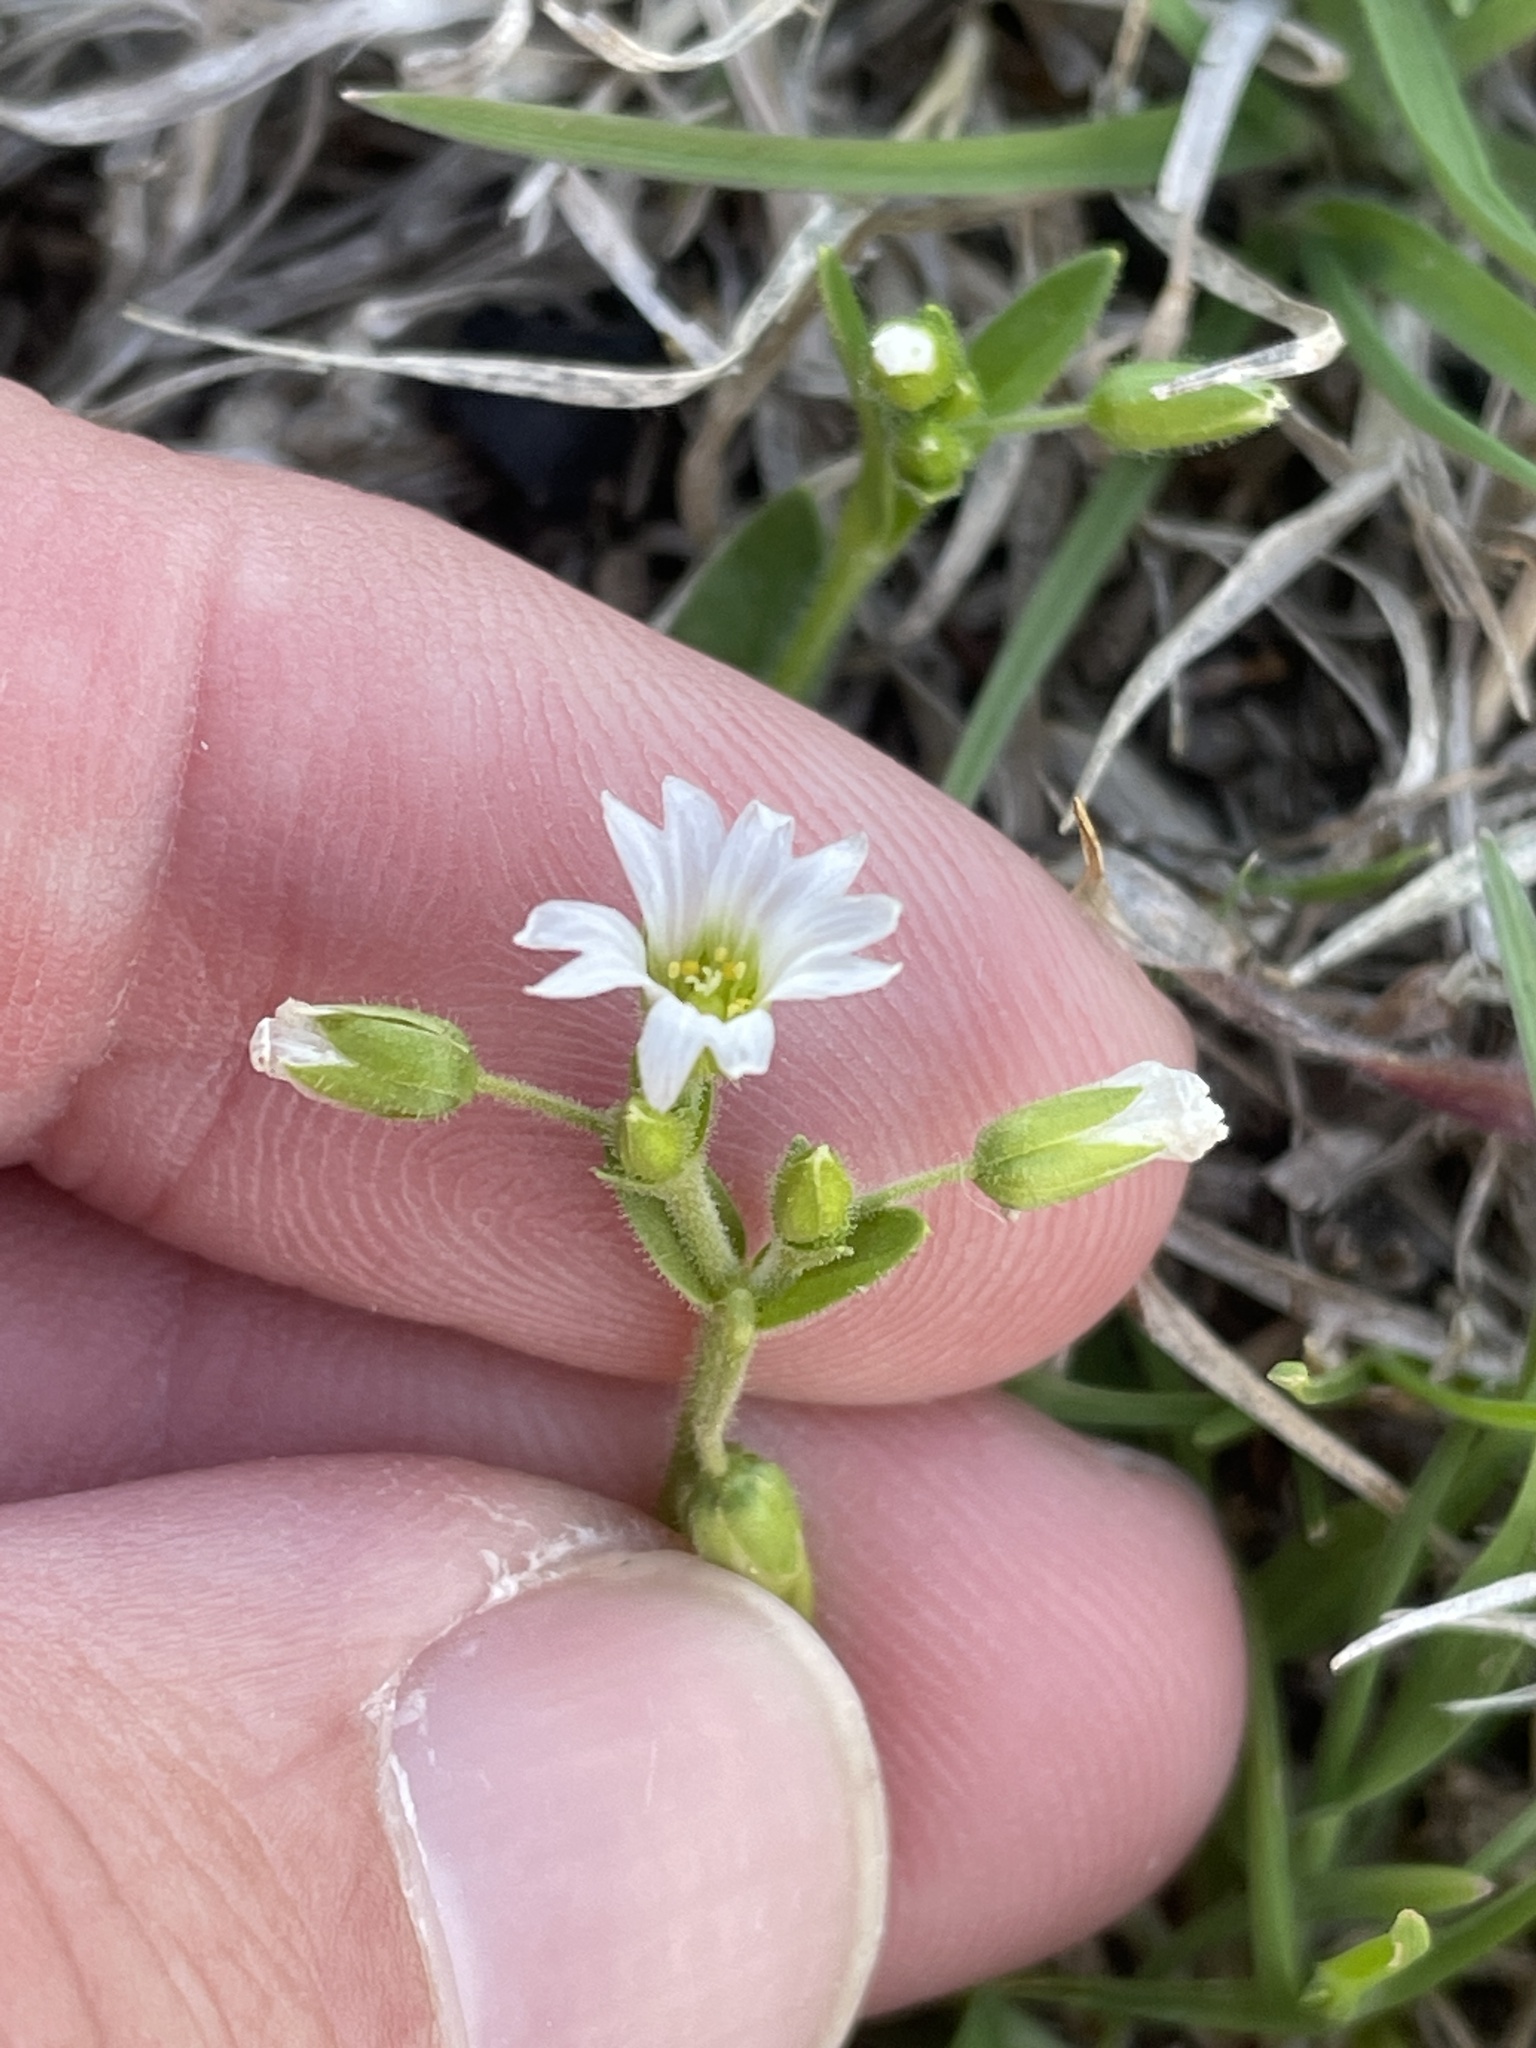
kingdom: Plantae
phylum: Tracheophyta
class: Magnoliopsida
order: Caryophyllales
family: Caryophyllaceae
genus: Cerastium
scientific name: Cerastium fontanum
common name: Common mouse-ear
